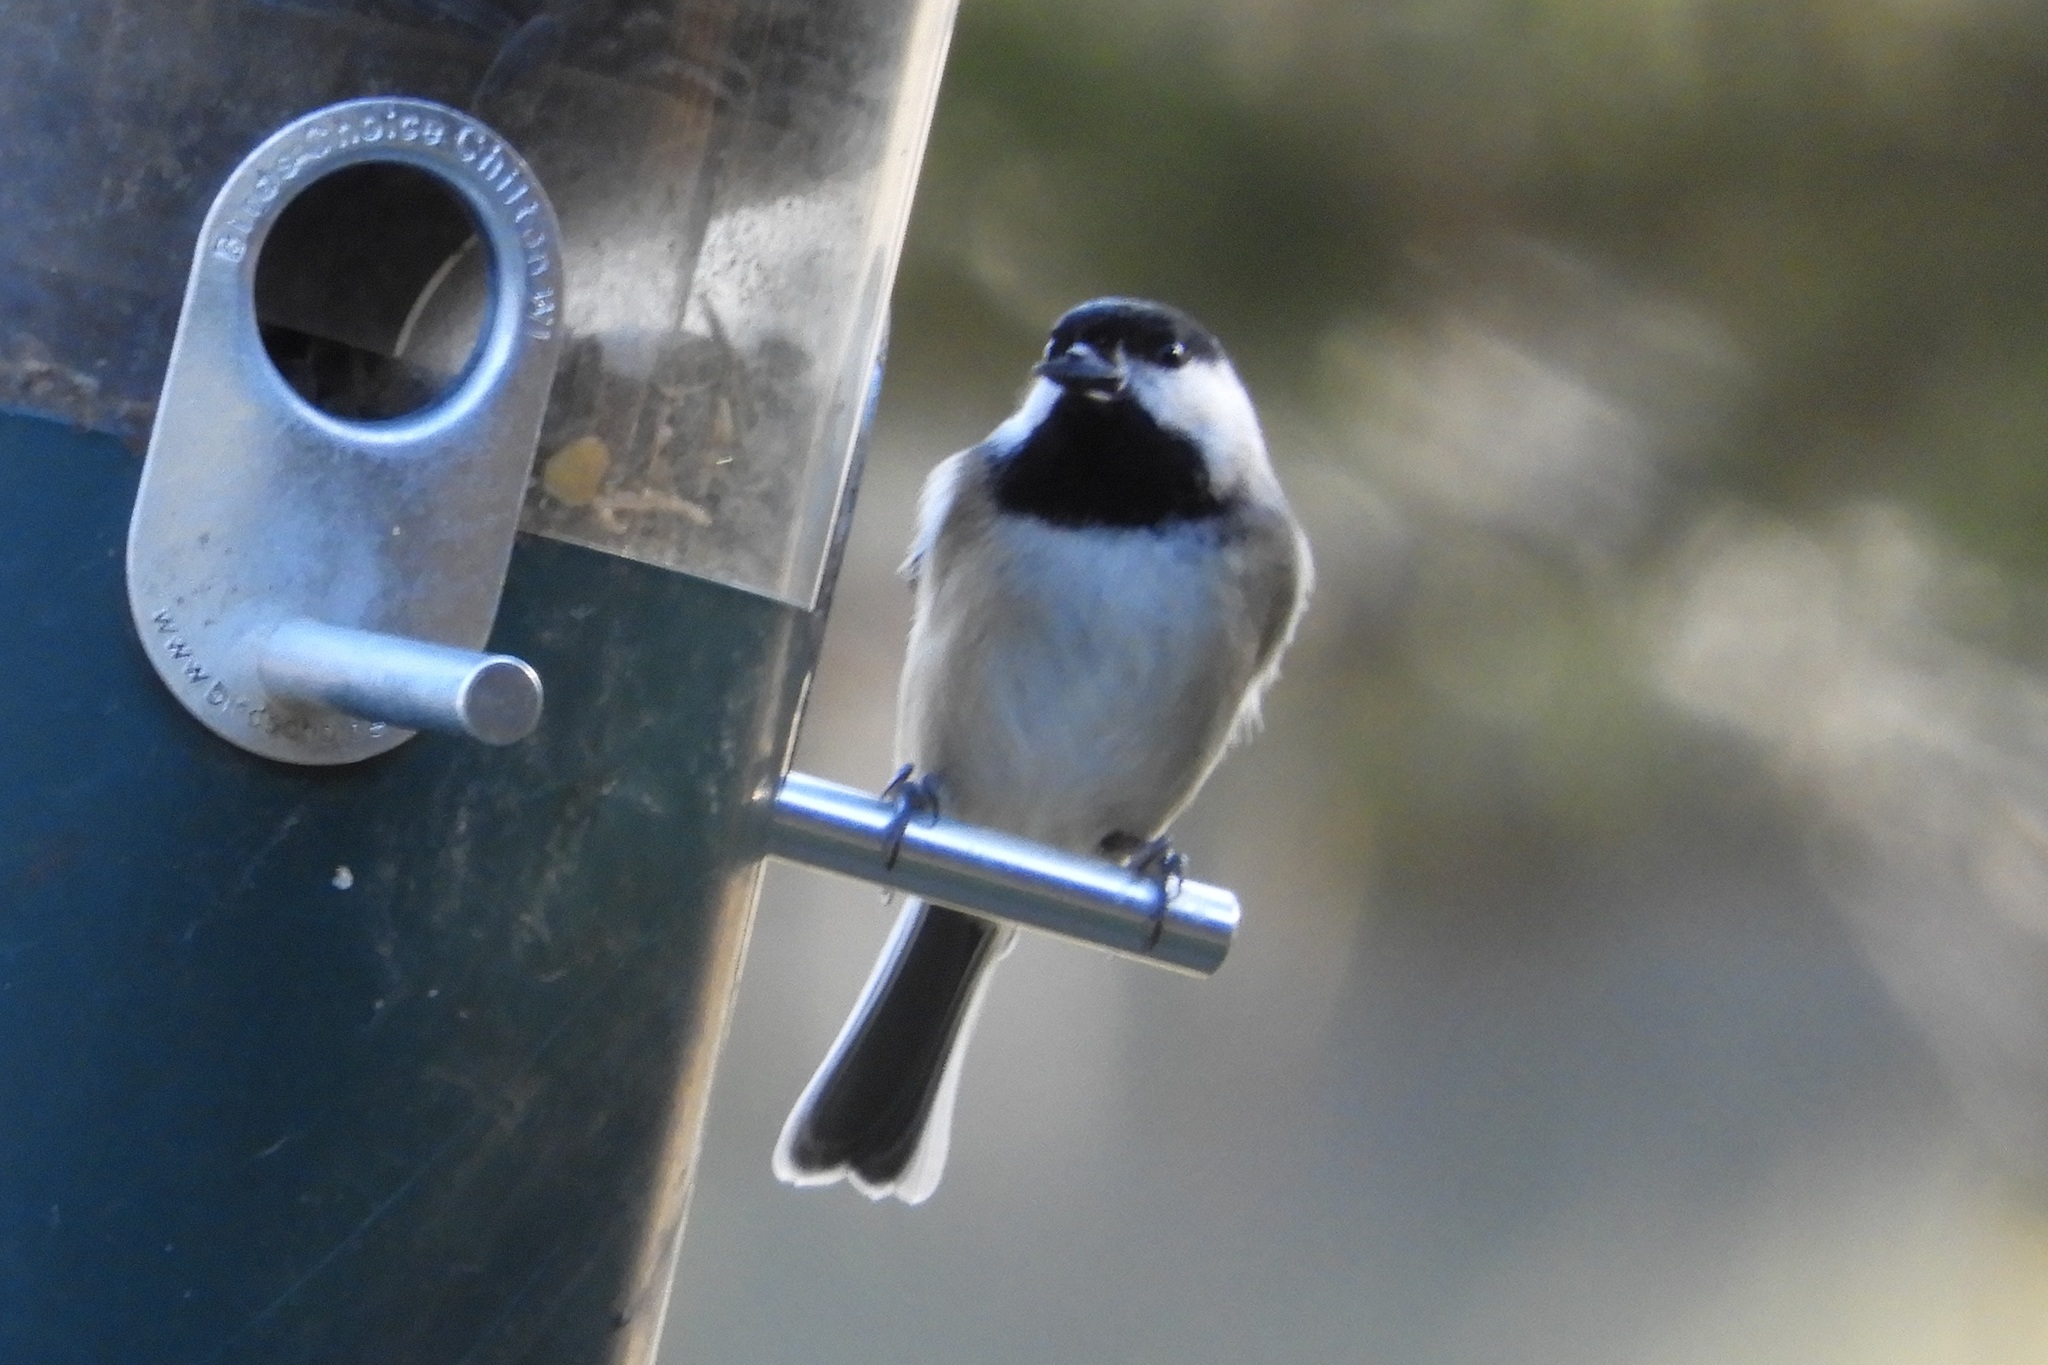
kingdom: Animalia
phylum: Chordata
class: Aves
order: Passeriformes
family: Paridae
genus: Poecile
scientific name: Poecile carolinensis
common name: Carolina chickadee
